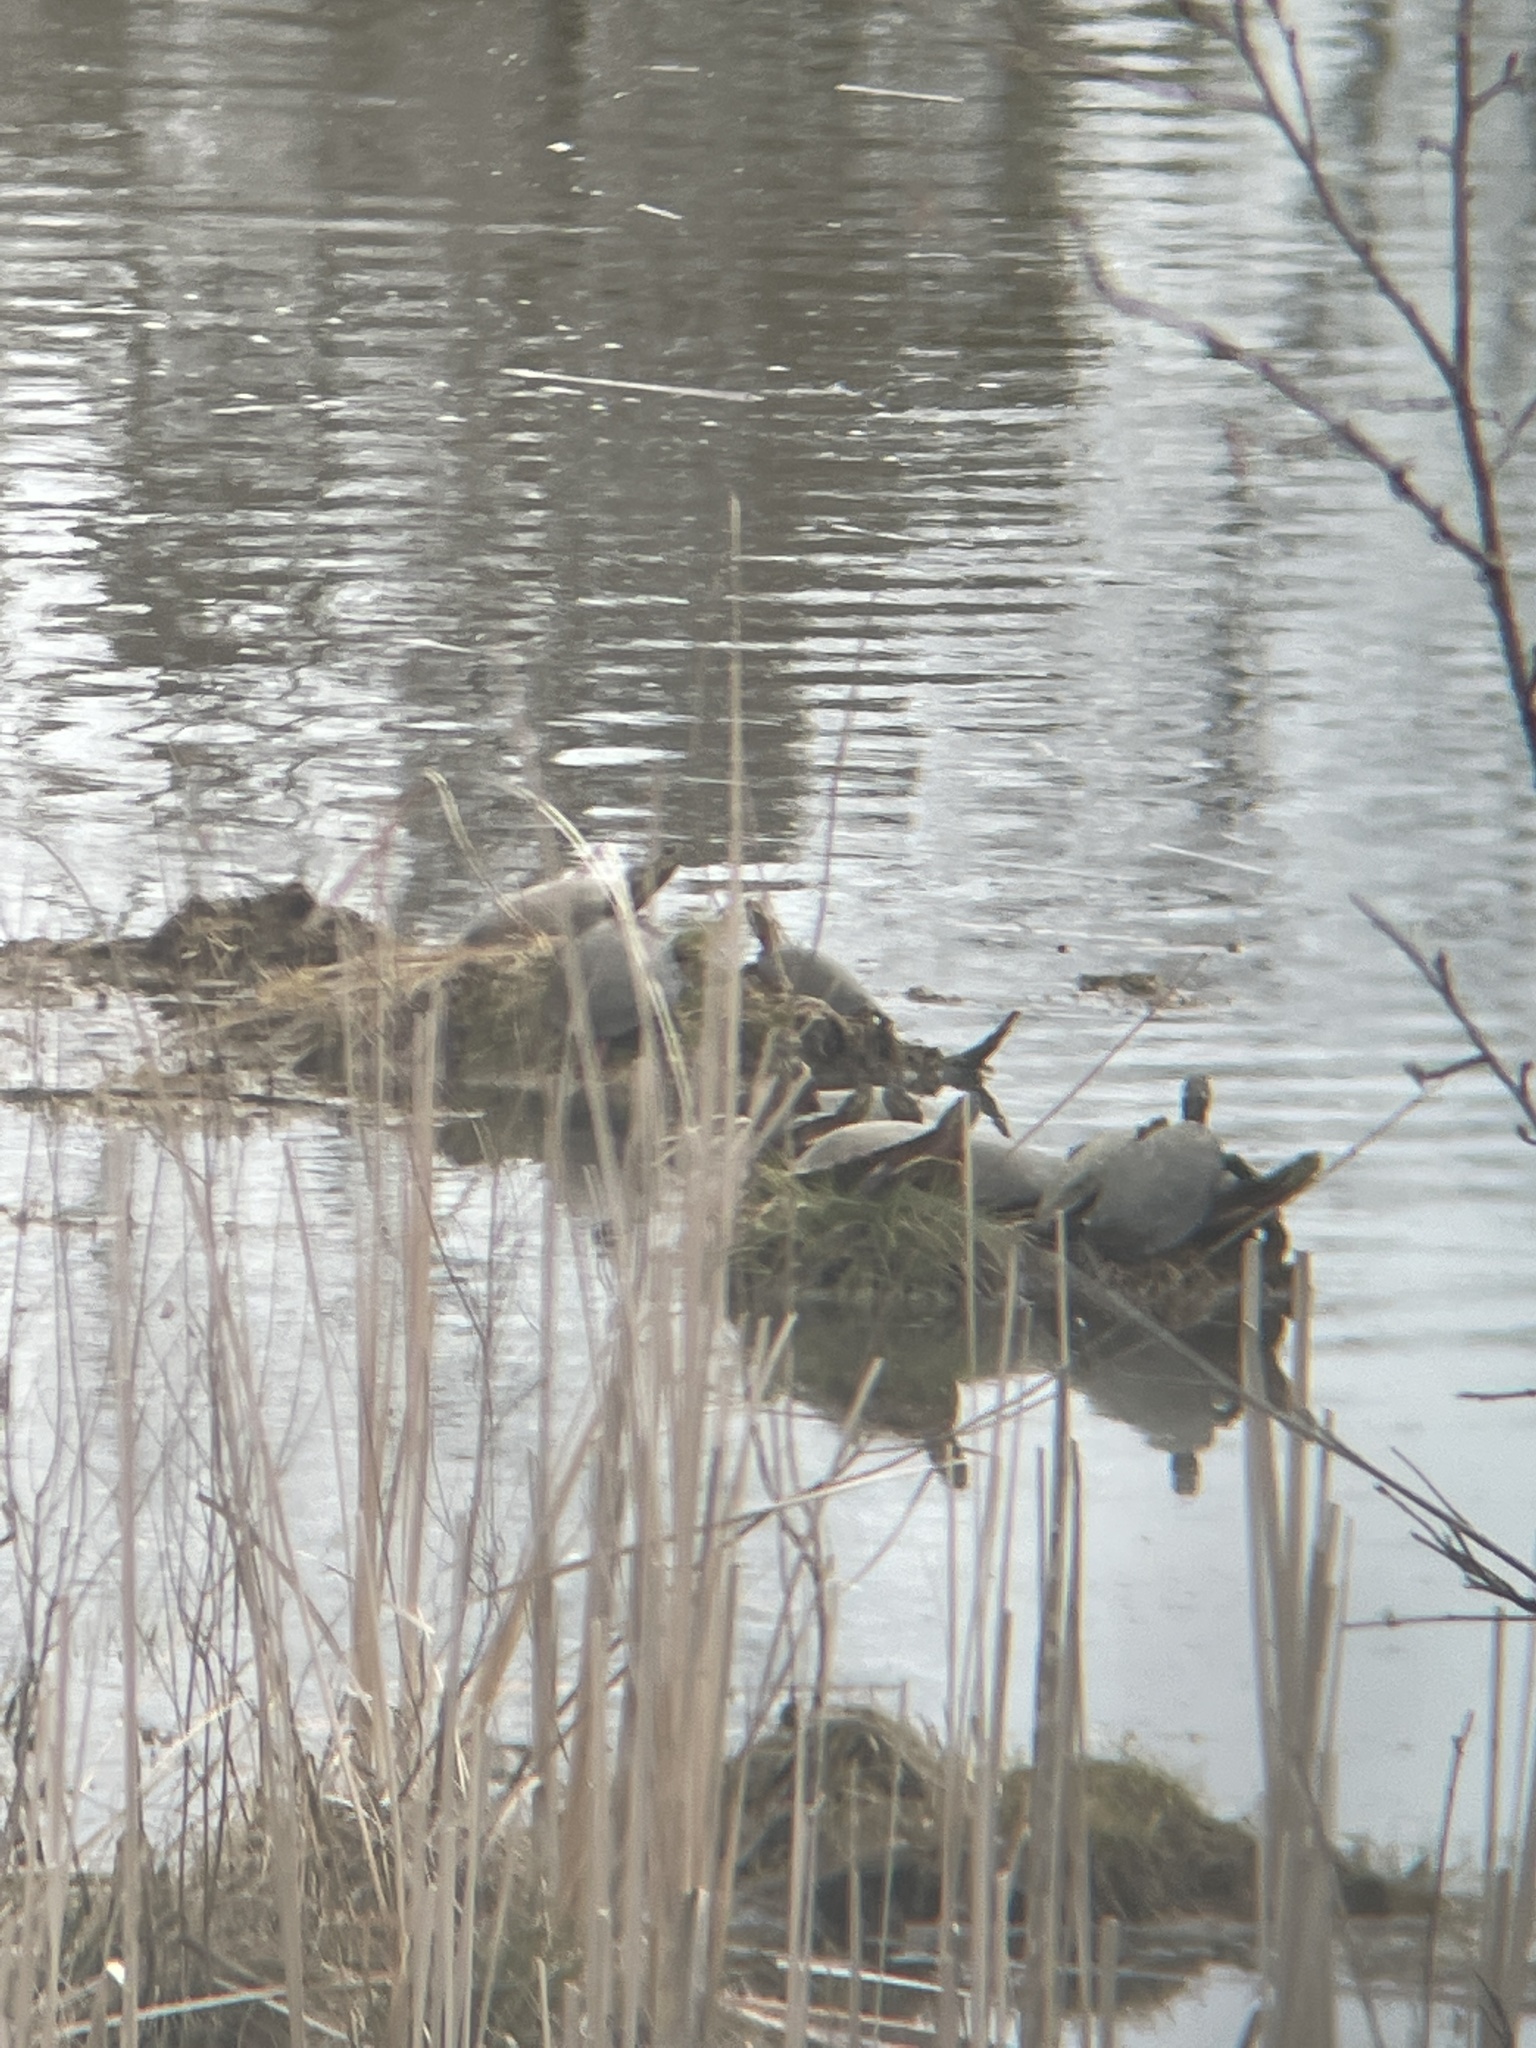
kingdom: Animalia
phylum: Chordata
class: Testudines
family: Emydidae
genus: Chrysemys
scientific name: Chrysemys picta
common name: Painted turtle
